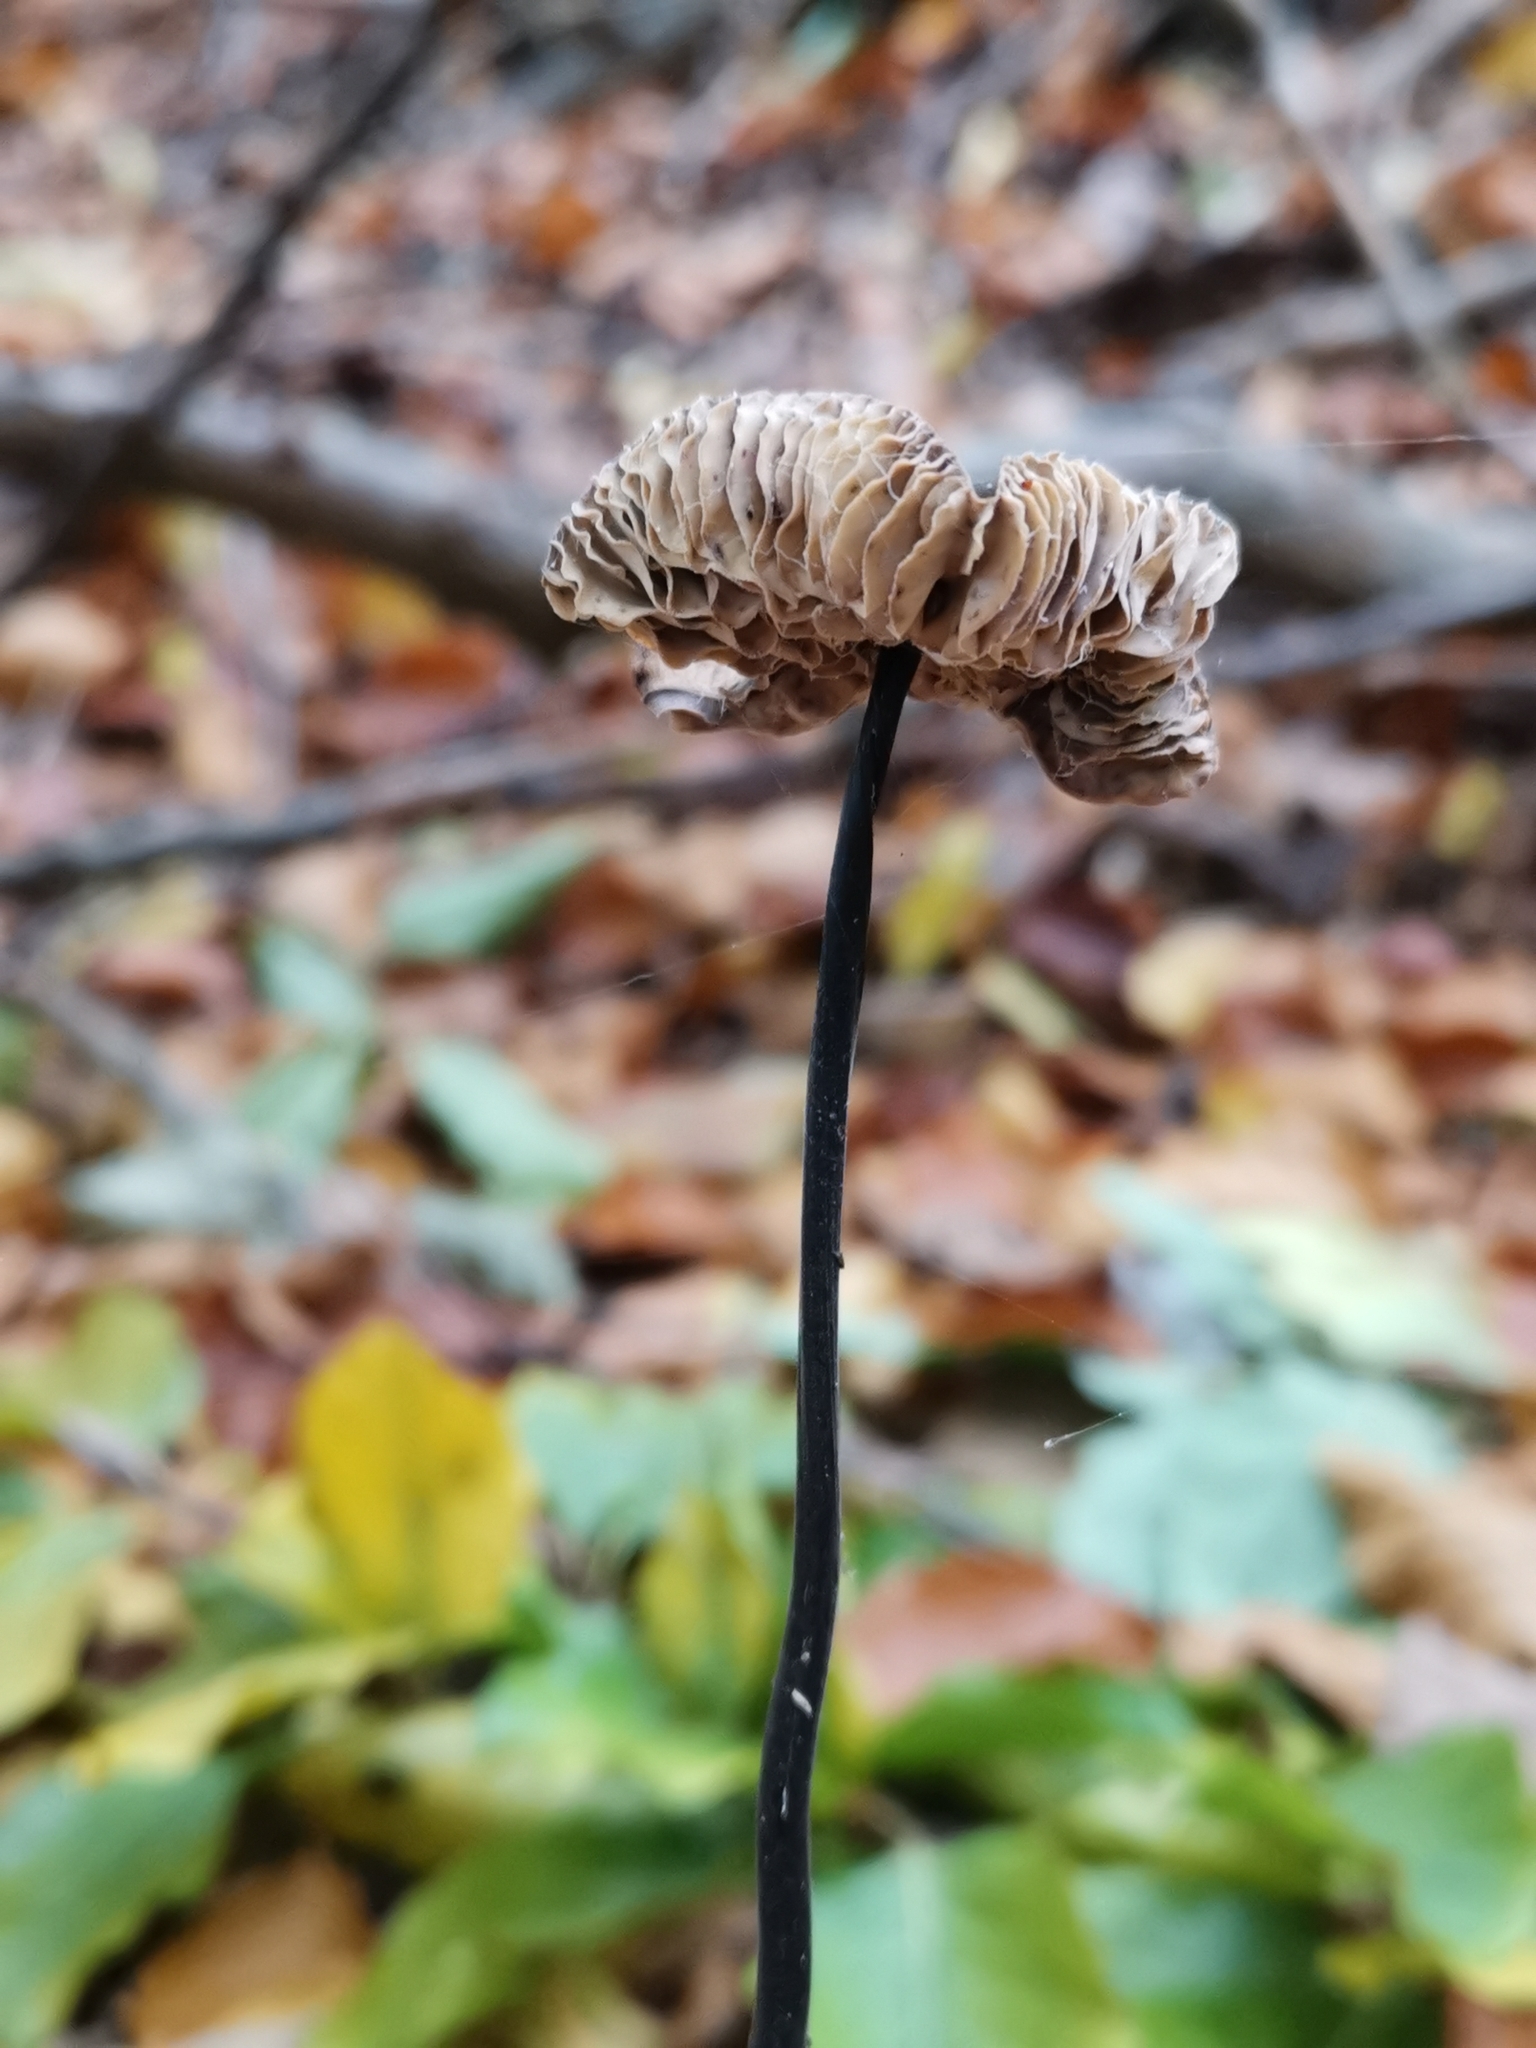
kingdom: Fungi
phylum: Basidiomycota
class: Agaricomycetes
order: Agaricales
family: Omphalotaceae
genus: Mycetinis
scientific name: Mycetinis alliaceus
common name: Garlic parachute
